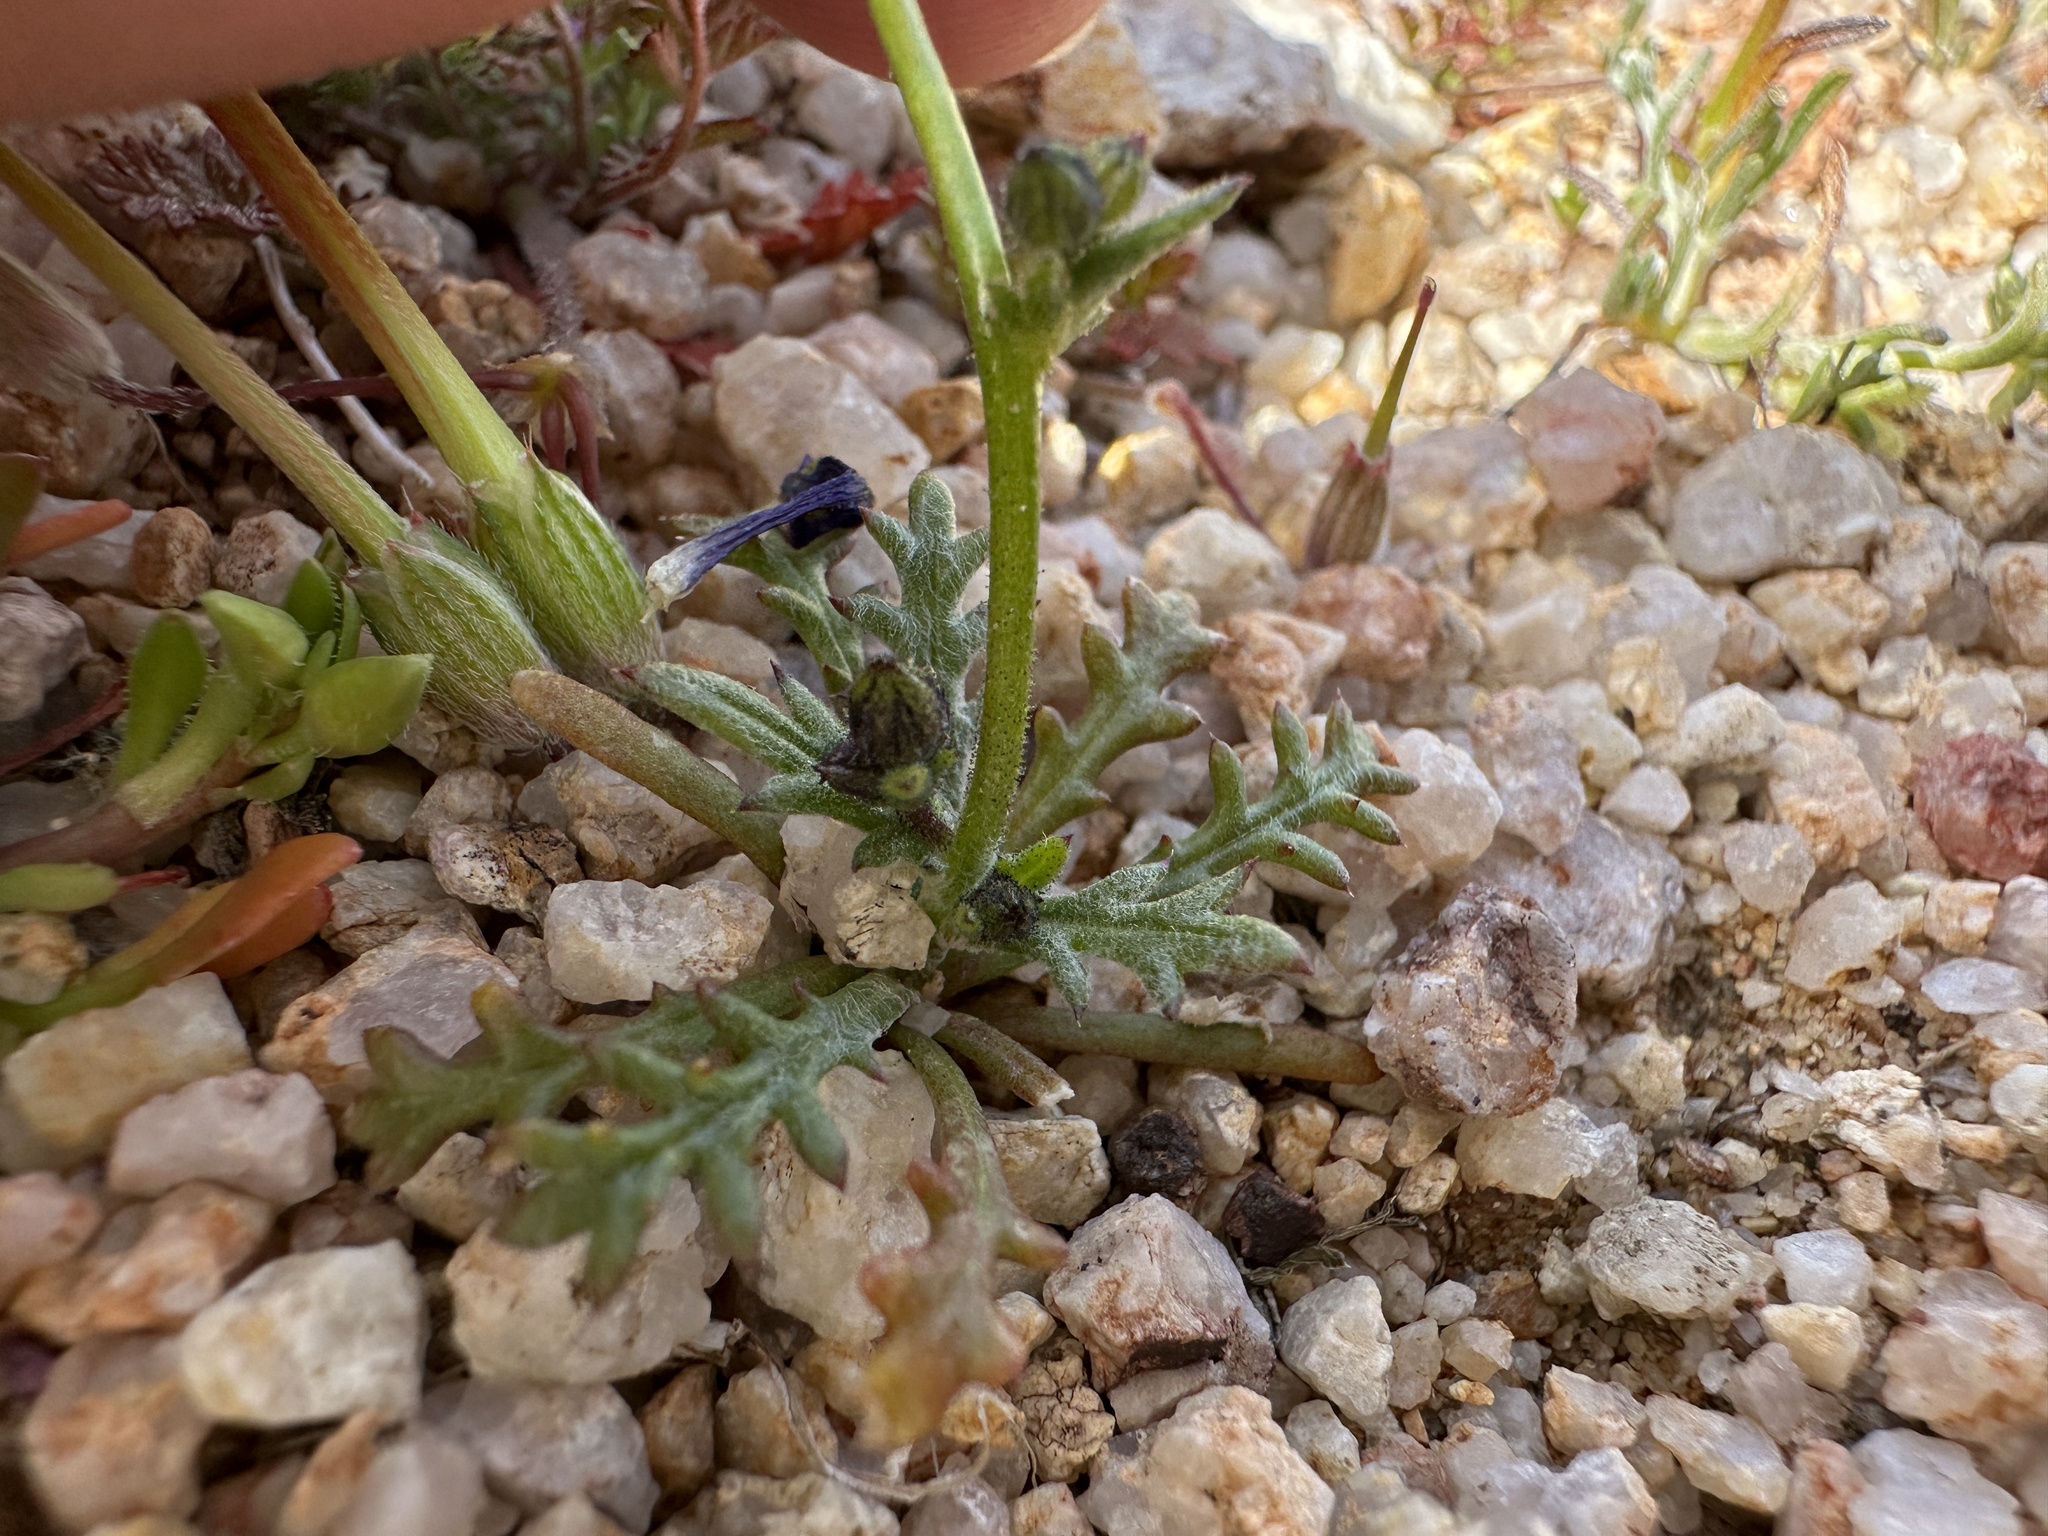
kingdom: Plantae
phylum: Tracheophyta
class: Magnoliopsida
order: Ericales
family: Polemoniaceae
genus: Gilia
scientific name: Gilia brecciarum
